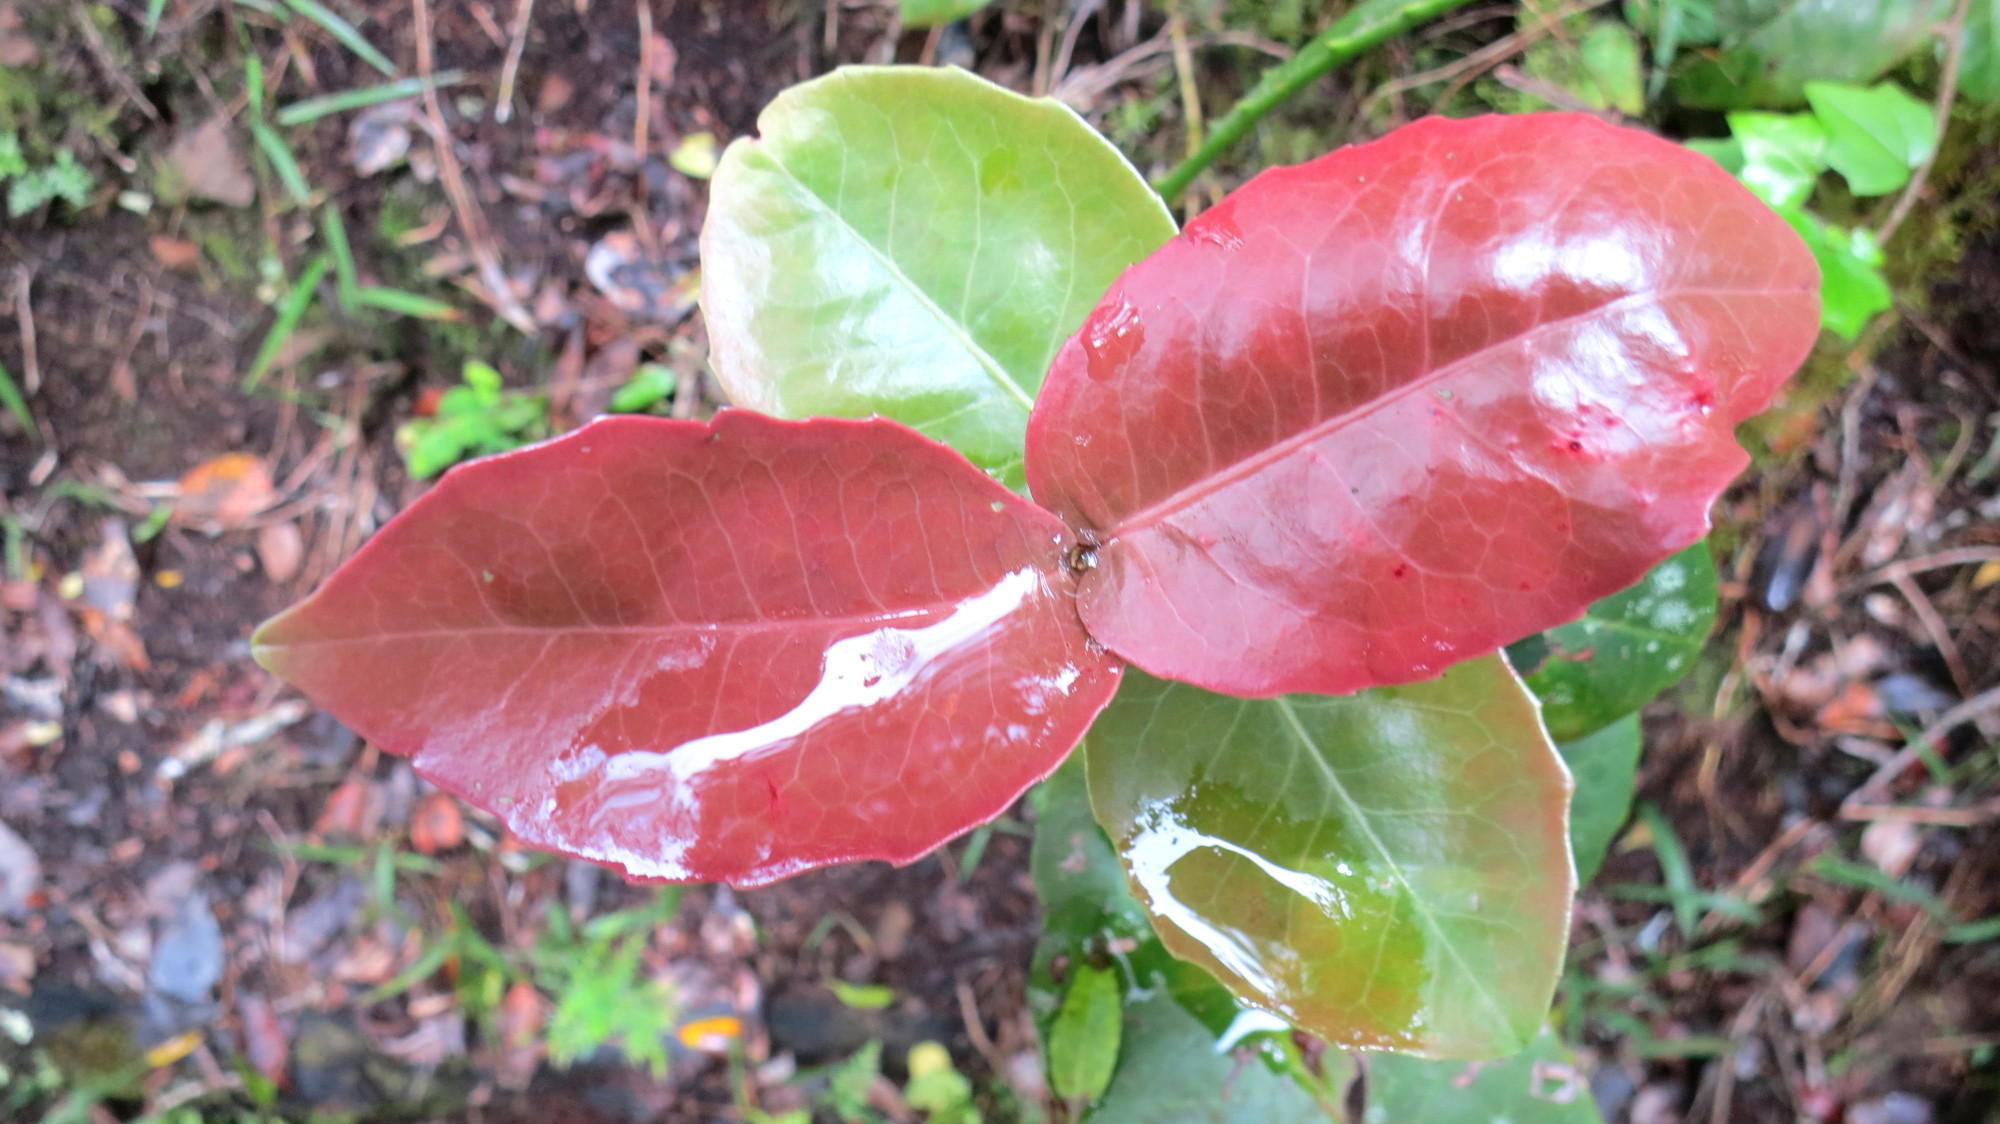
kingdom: Plantae
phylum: Tracheophyta
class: Magnoliopsida
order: Celastrales
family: Celastraceae
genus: Lauridia
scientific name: Lauridia tetragona
